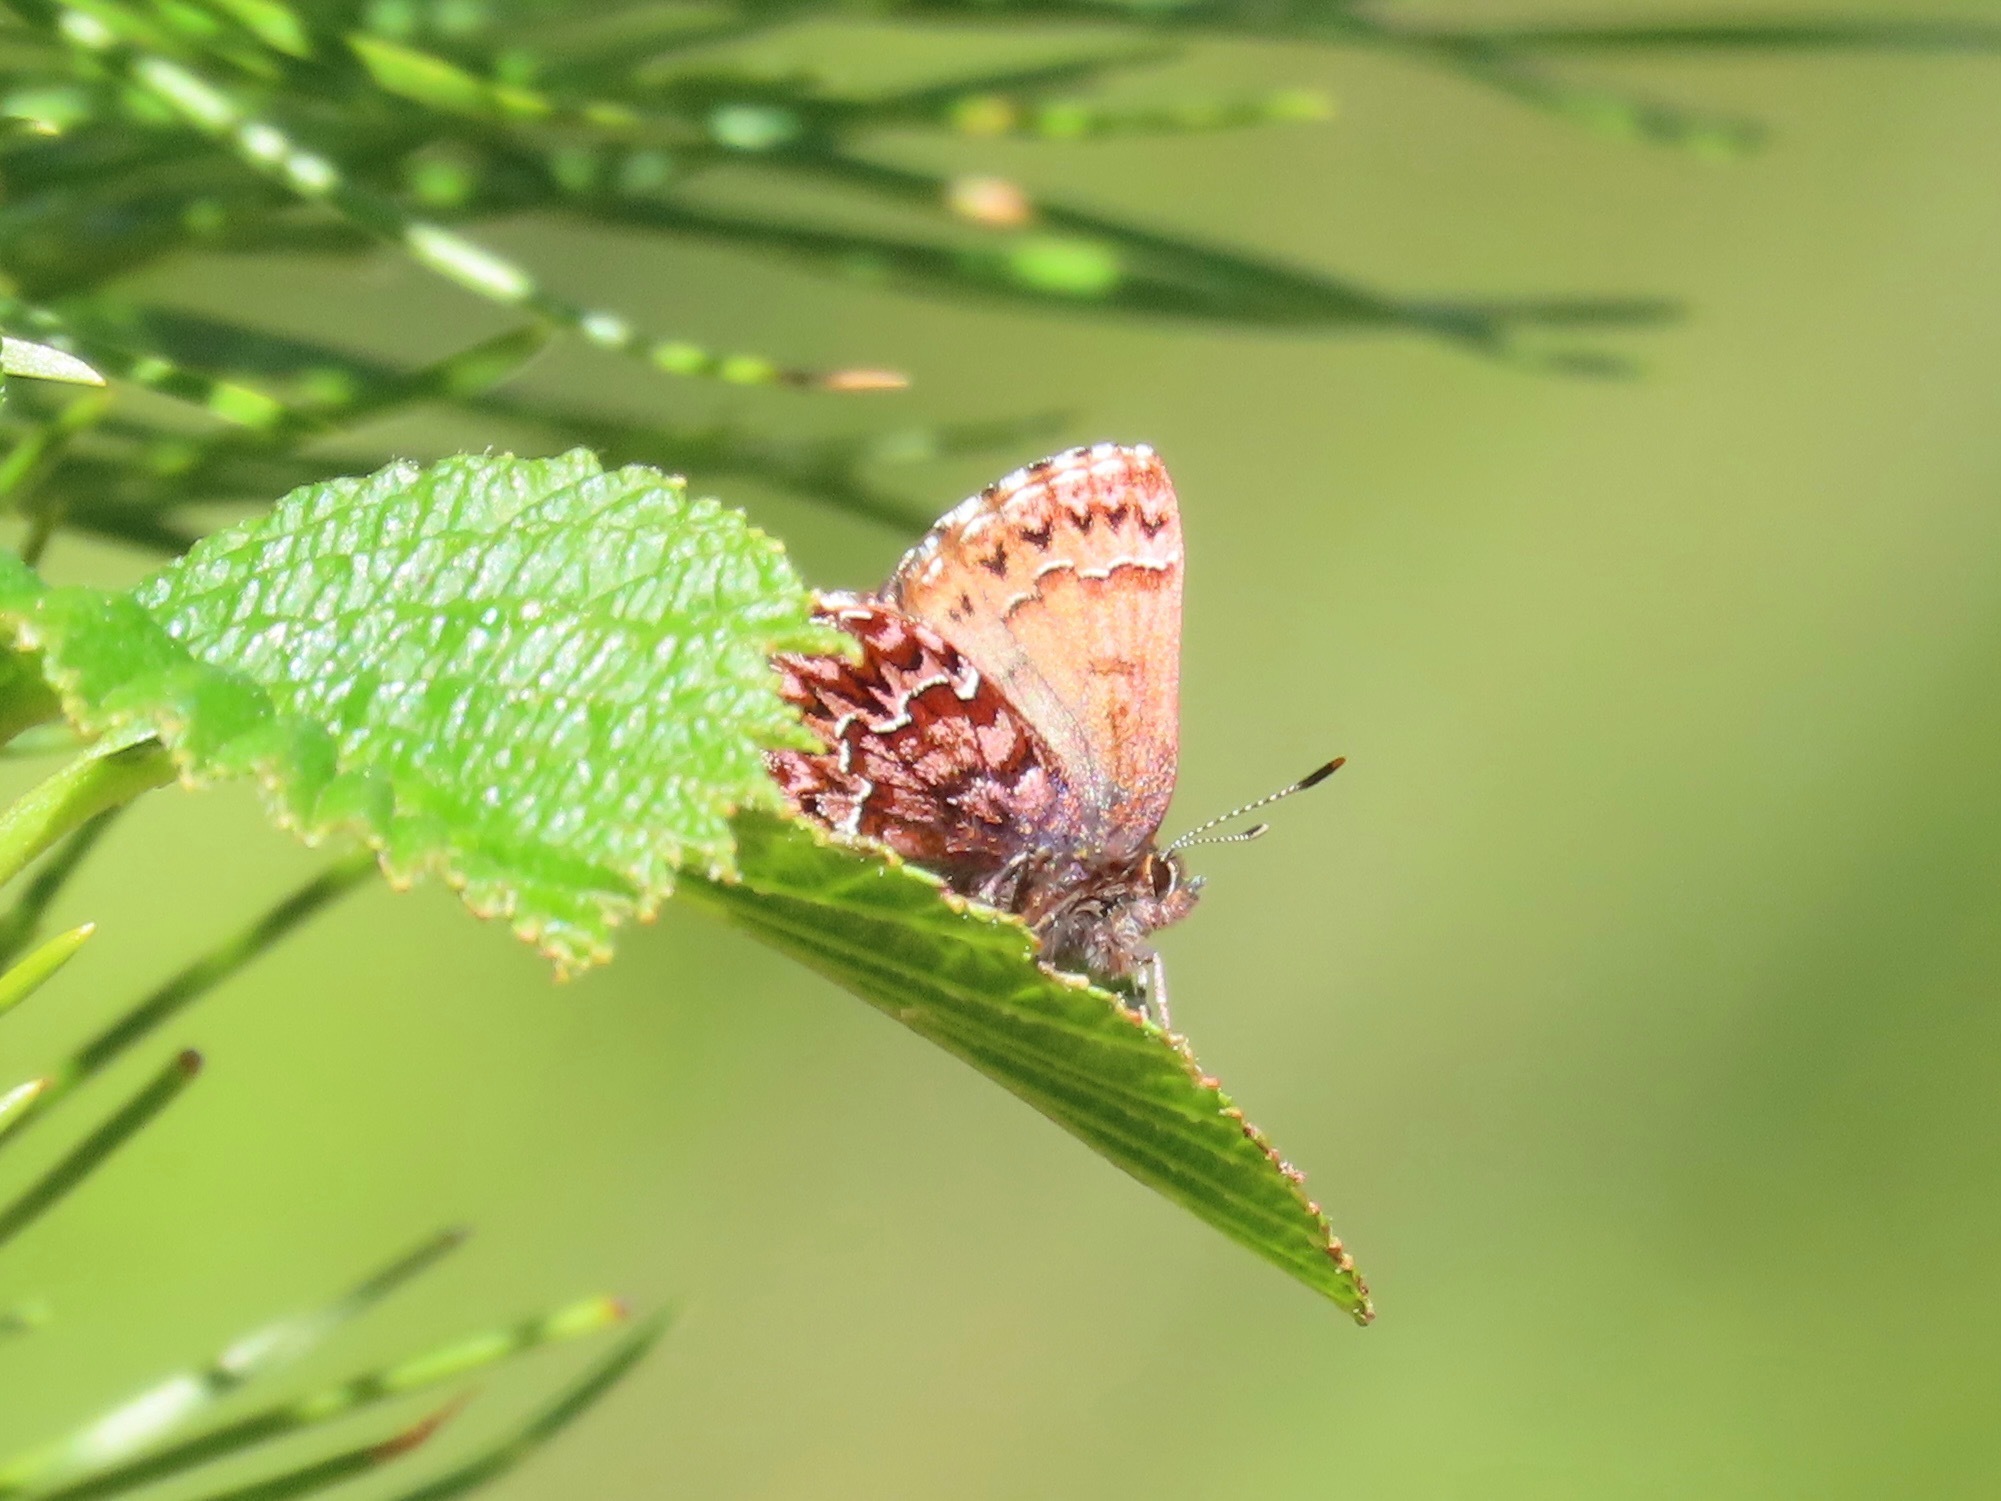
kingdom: Animalia
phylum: Arthropoda
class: Insecta
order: Lepidoptera
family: Lycaenidae
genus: Incisalia
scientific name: Incisalia eryphon
